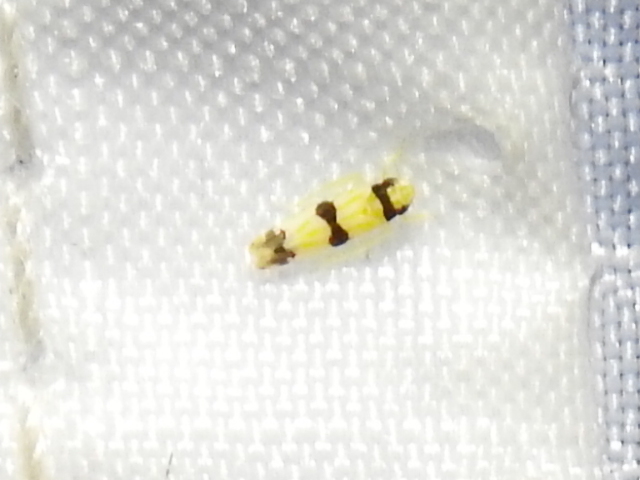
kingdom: Animalia
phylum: Arthropoda
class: Insecta
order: Hemiptera
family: Cicadellidae
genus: Erythroneura
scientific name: Erythroneura cymbium
